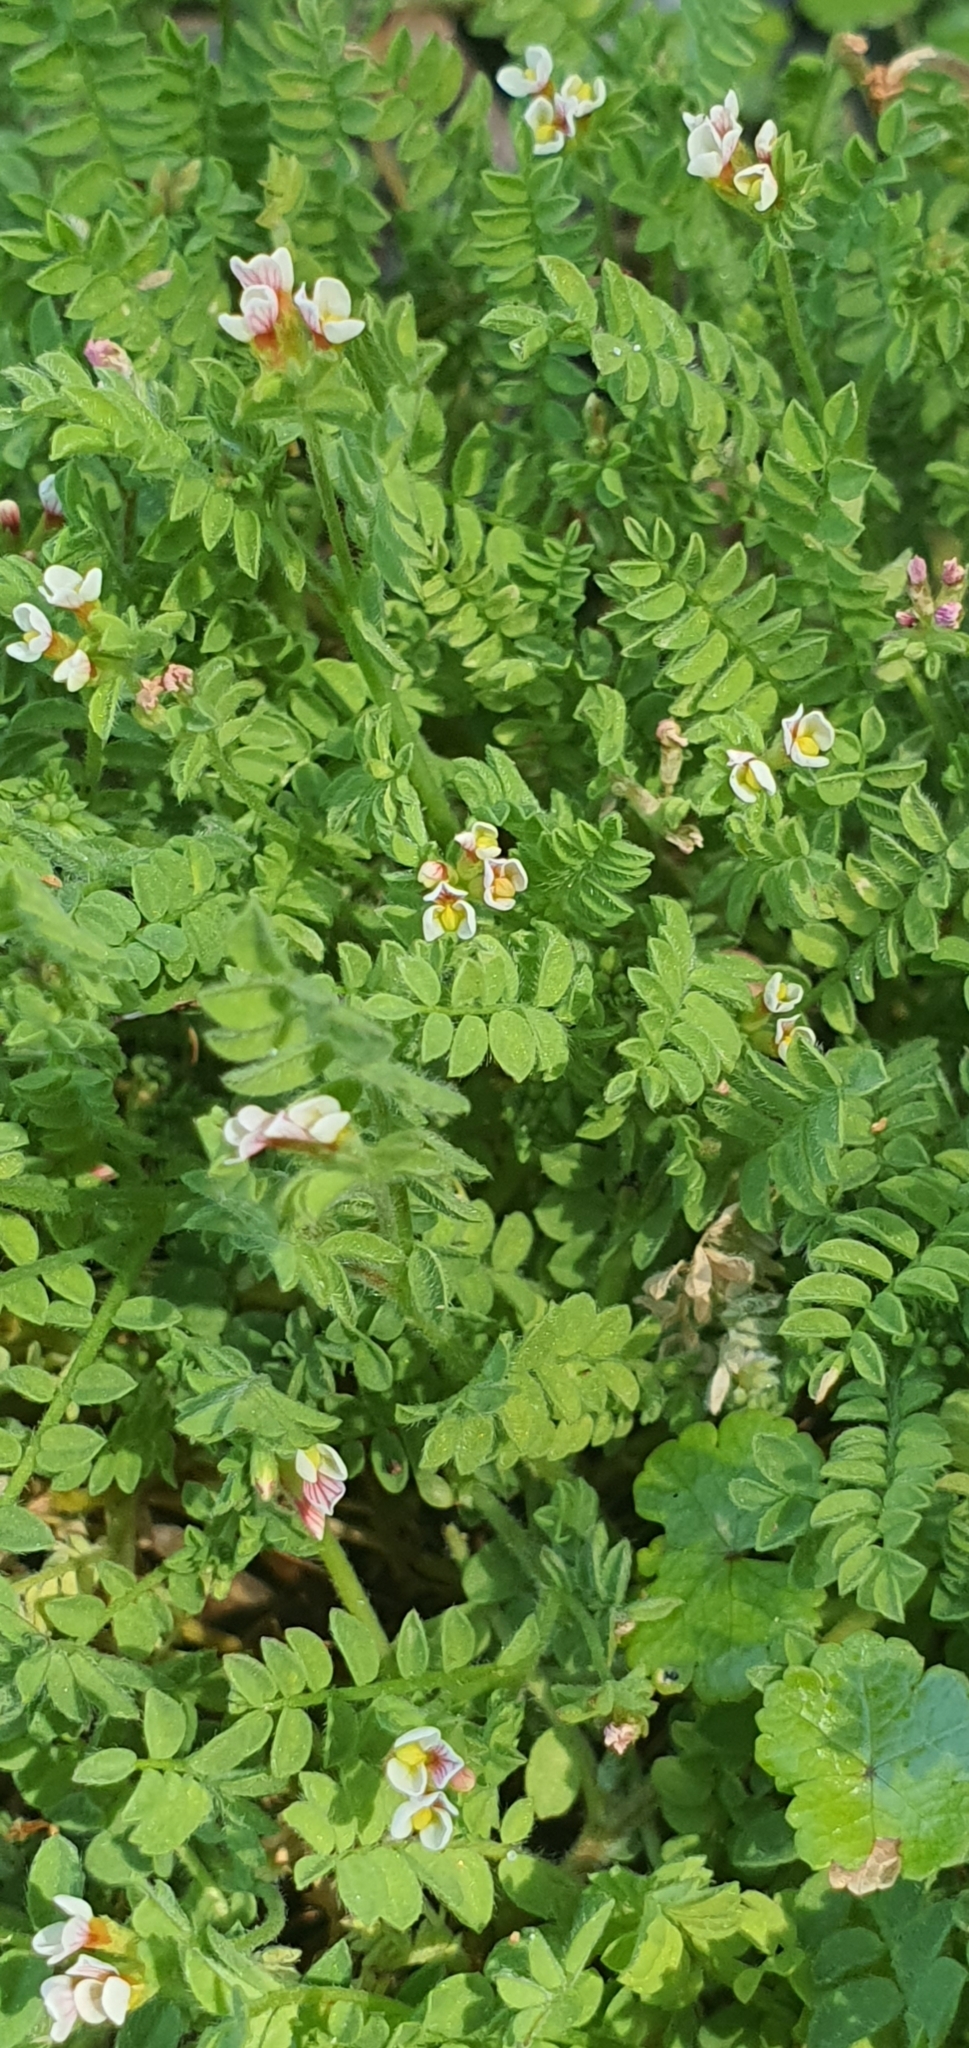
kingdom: Plantae
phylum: Tracheophyta
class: Magnoliopsida
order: Fabales
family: Fabaceae
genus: Ornithopus
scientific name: Ornithopus perpusillus
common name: Bird's-foot
